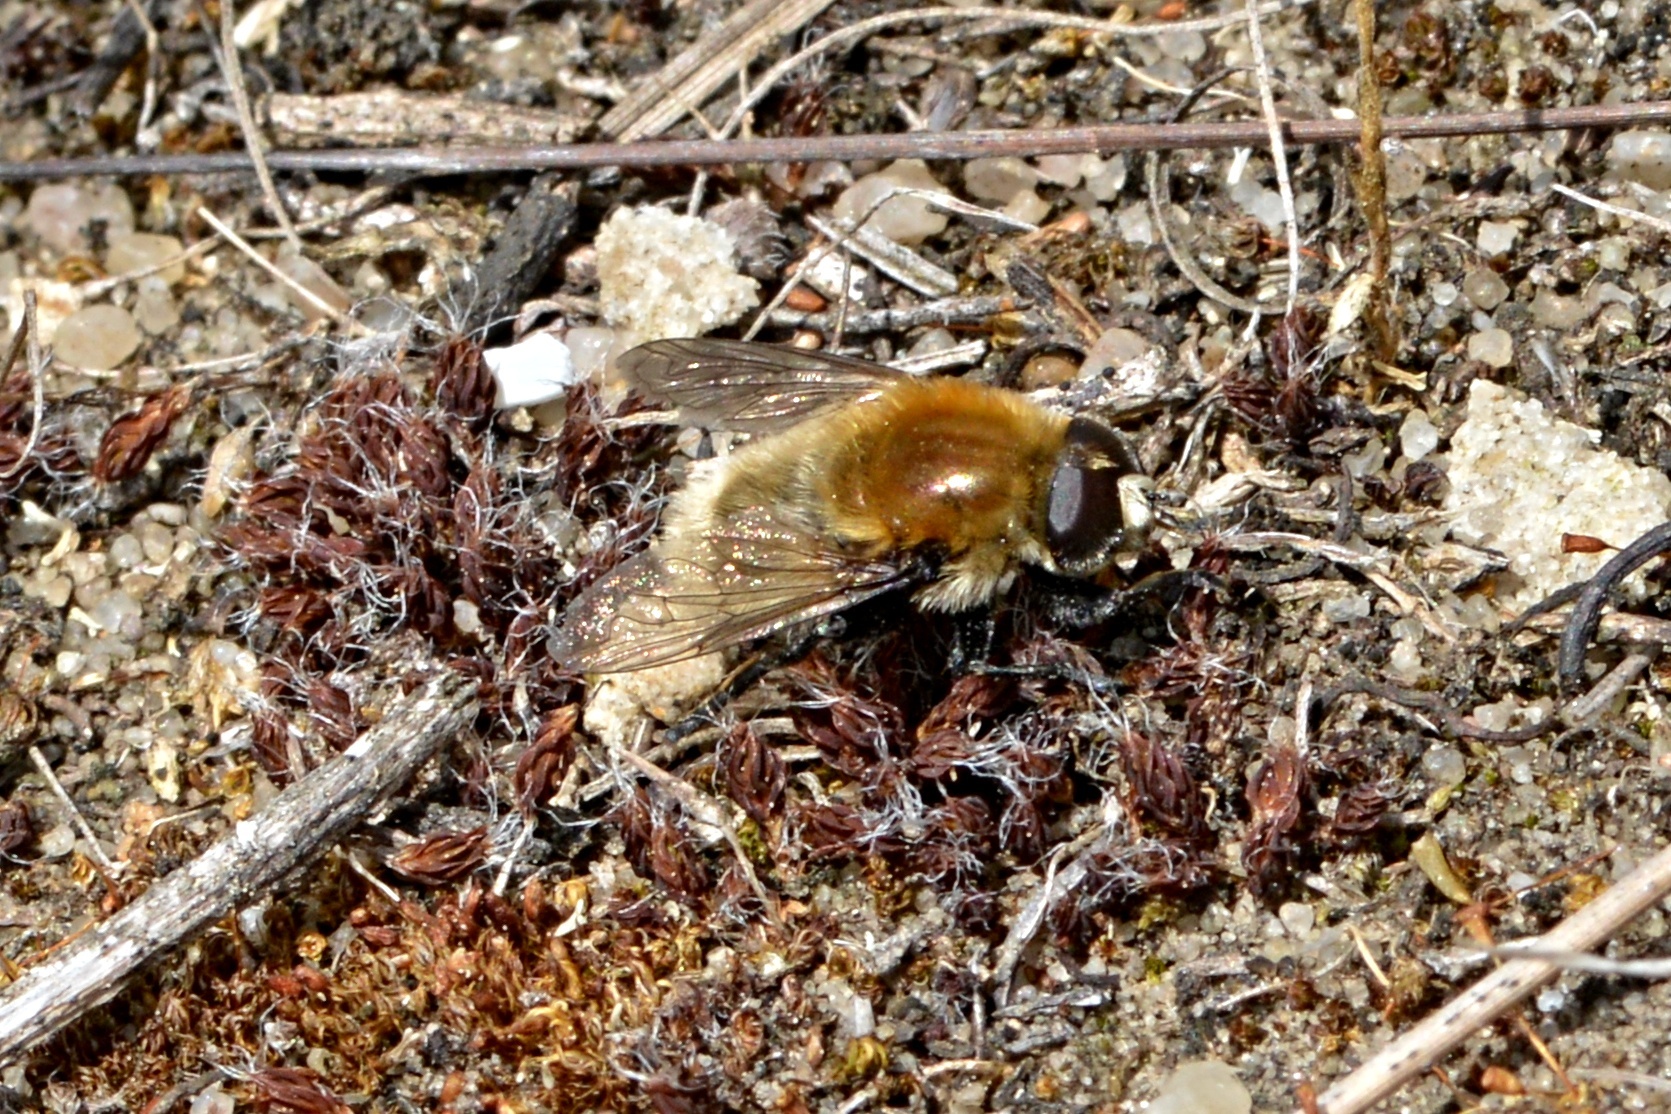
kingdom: Animalia
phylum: Arthropoda
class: Insecta
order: Diptera
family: Syrphidae
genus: Merodon
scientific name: Merodon equestris
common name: Greater bulb-fly
